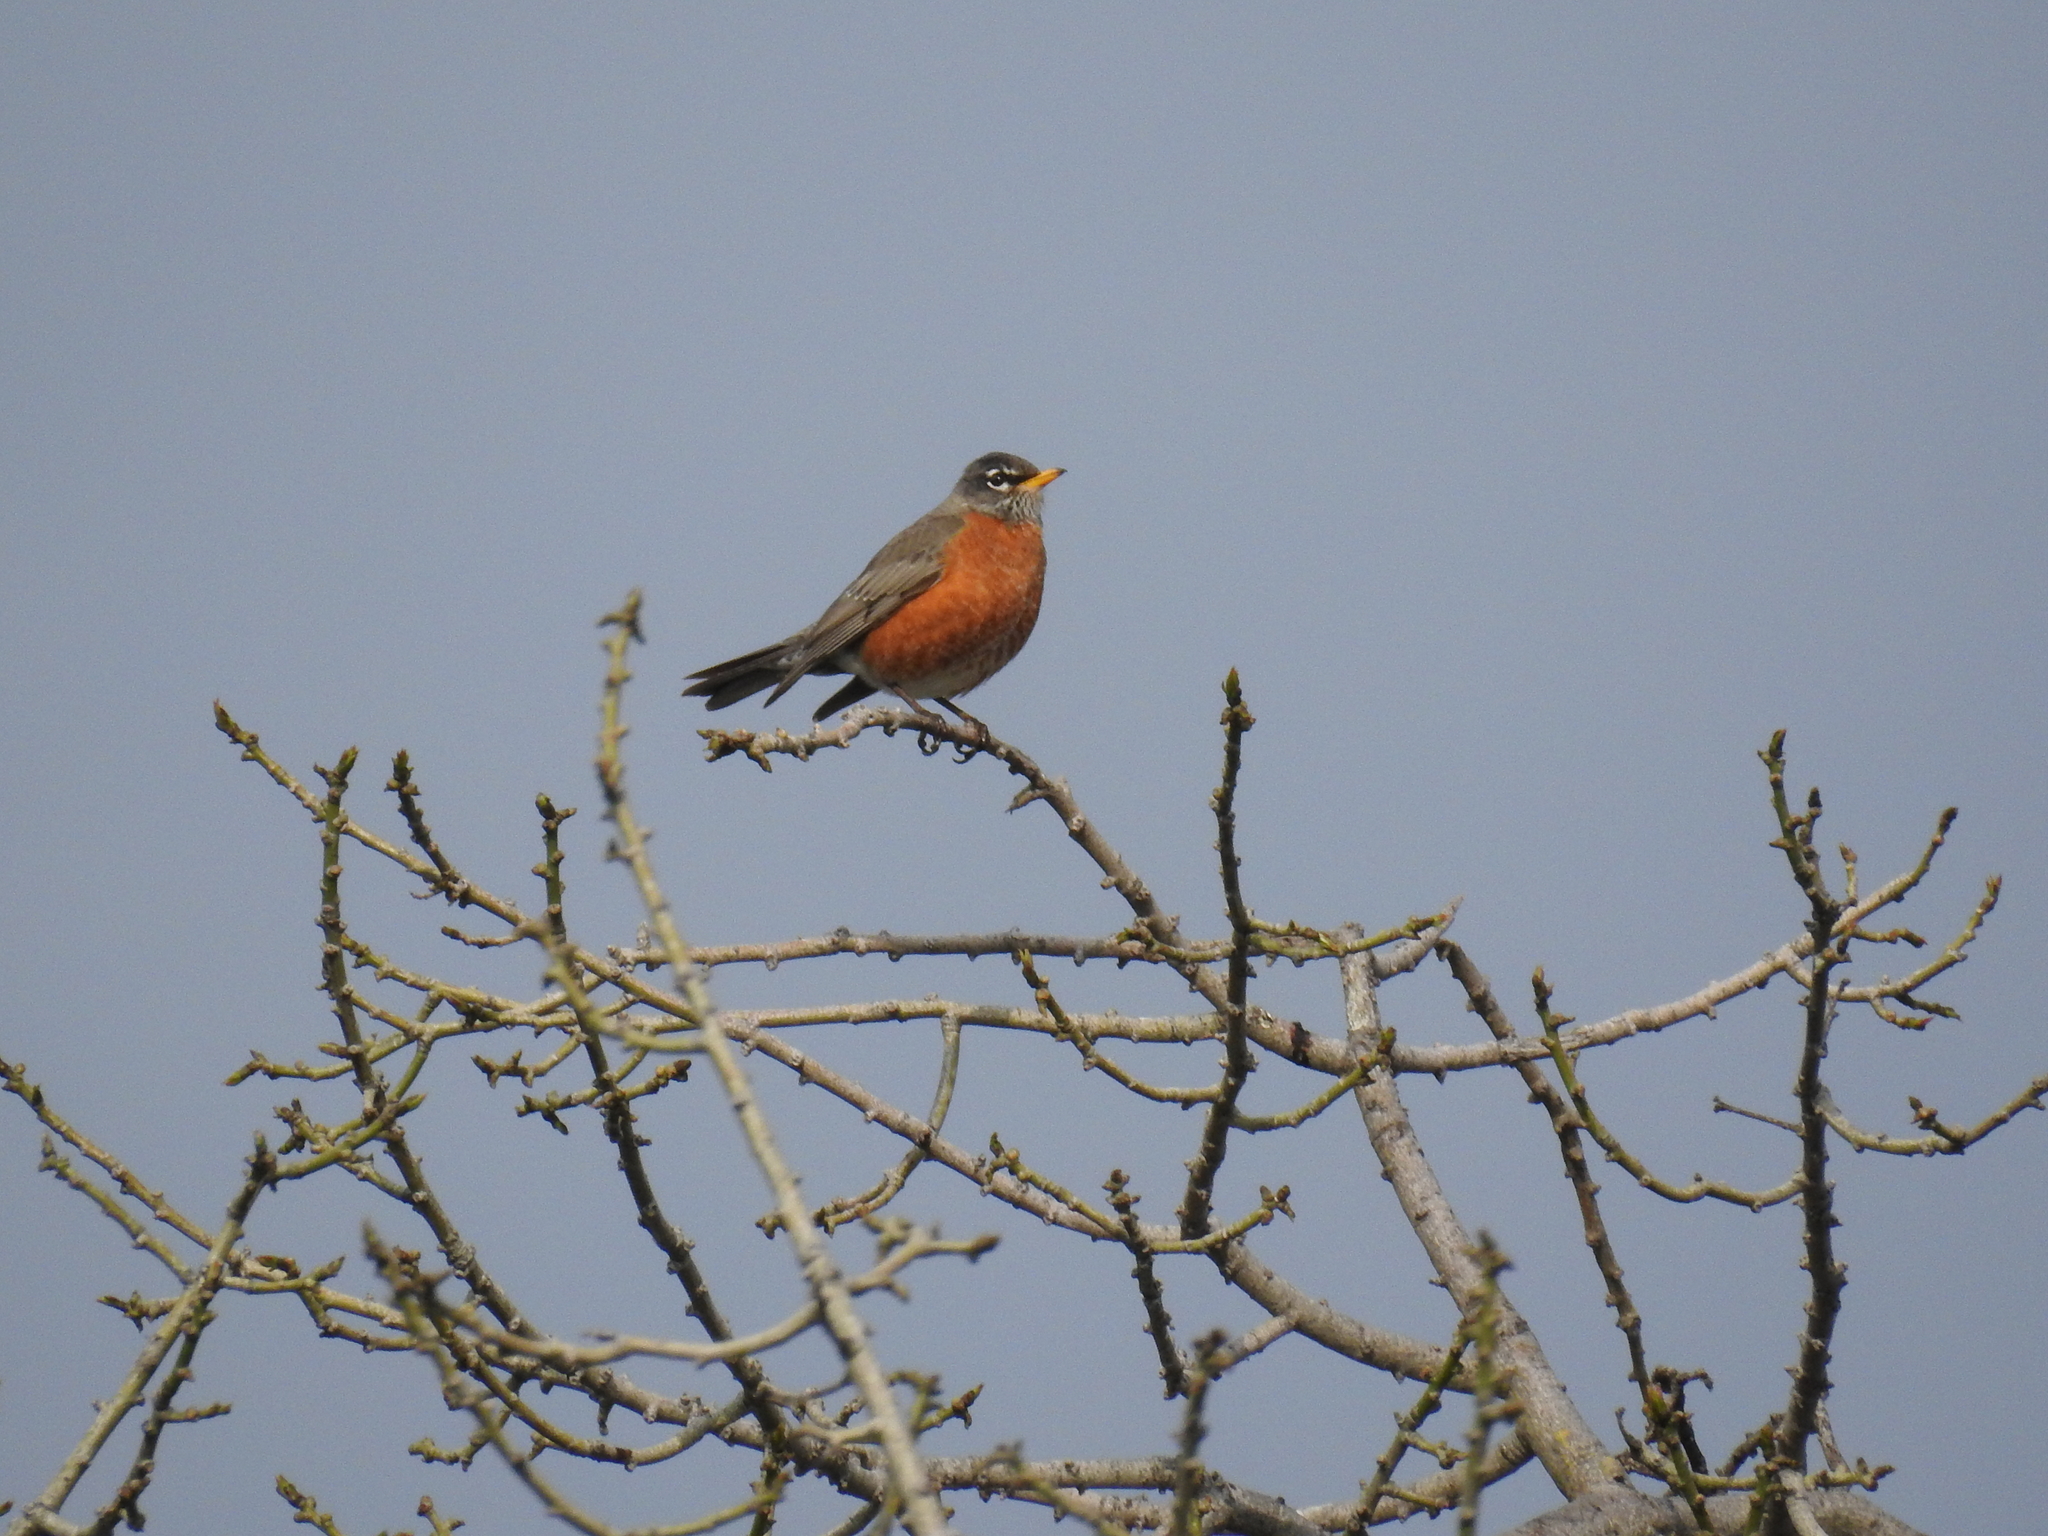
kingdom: Animalia
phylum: Chordata
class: Aves
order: Passeriformes
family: Turdidae
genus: Turdus
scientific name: Turdus migratorius
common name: American robin
